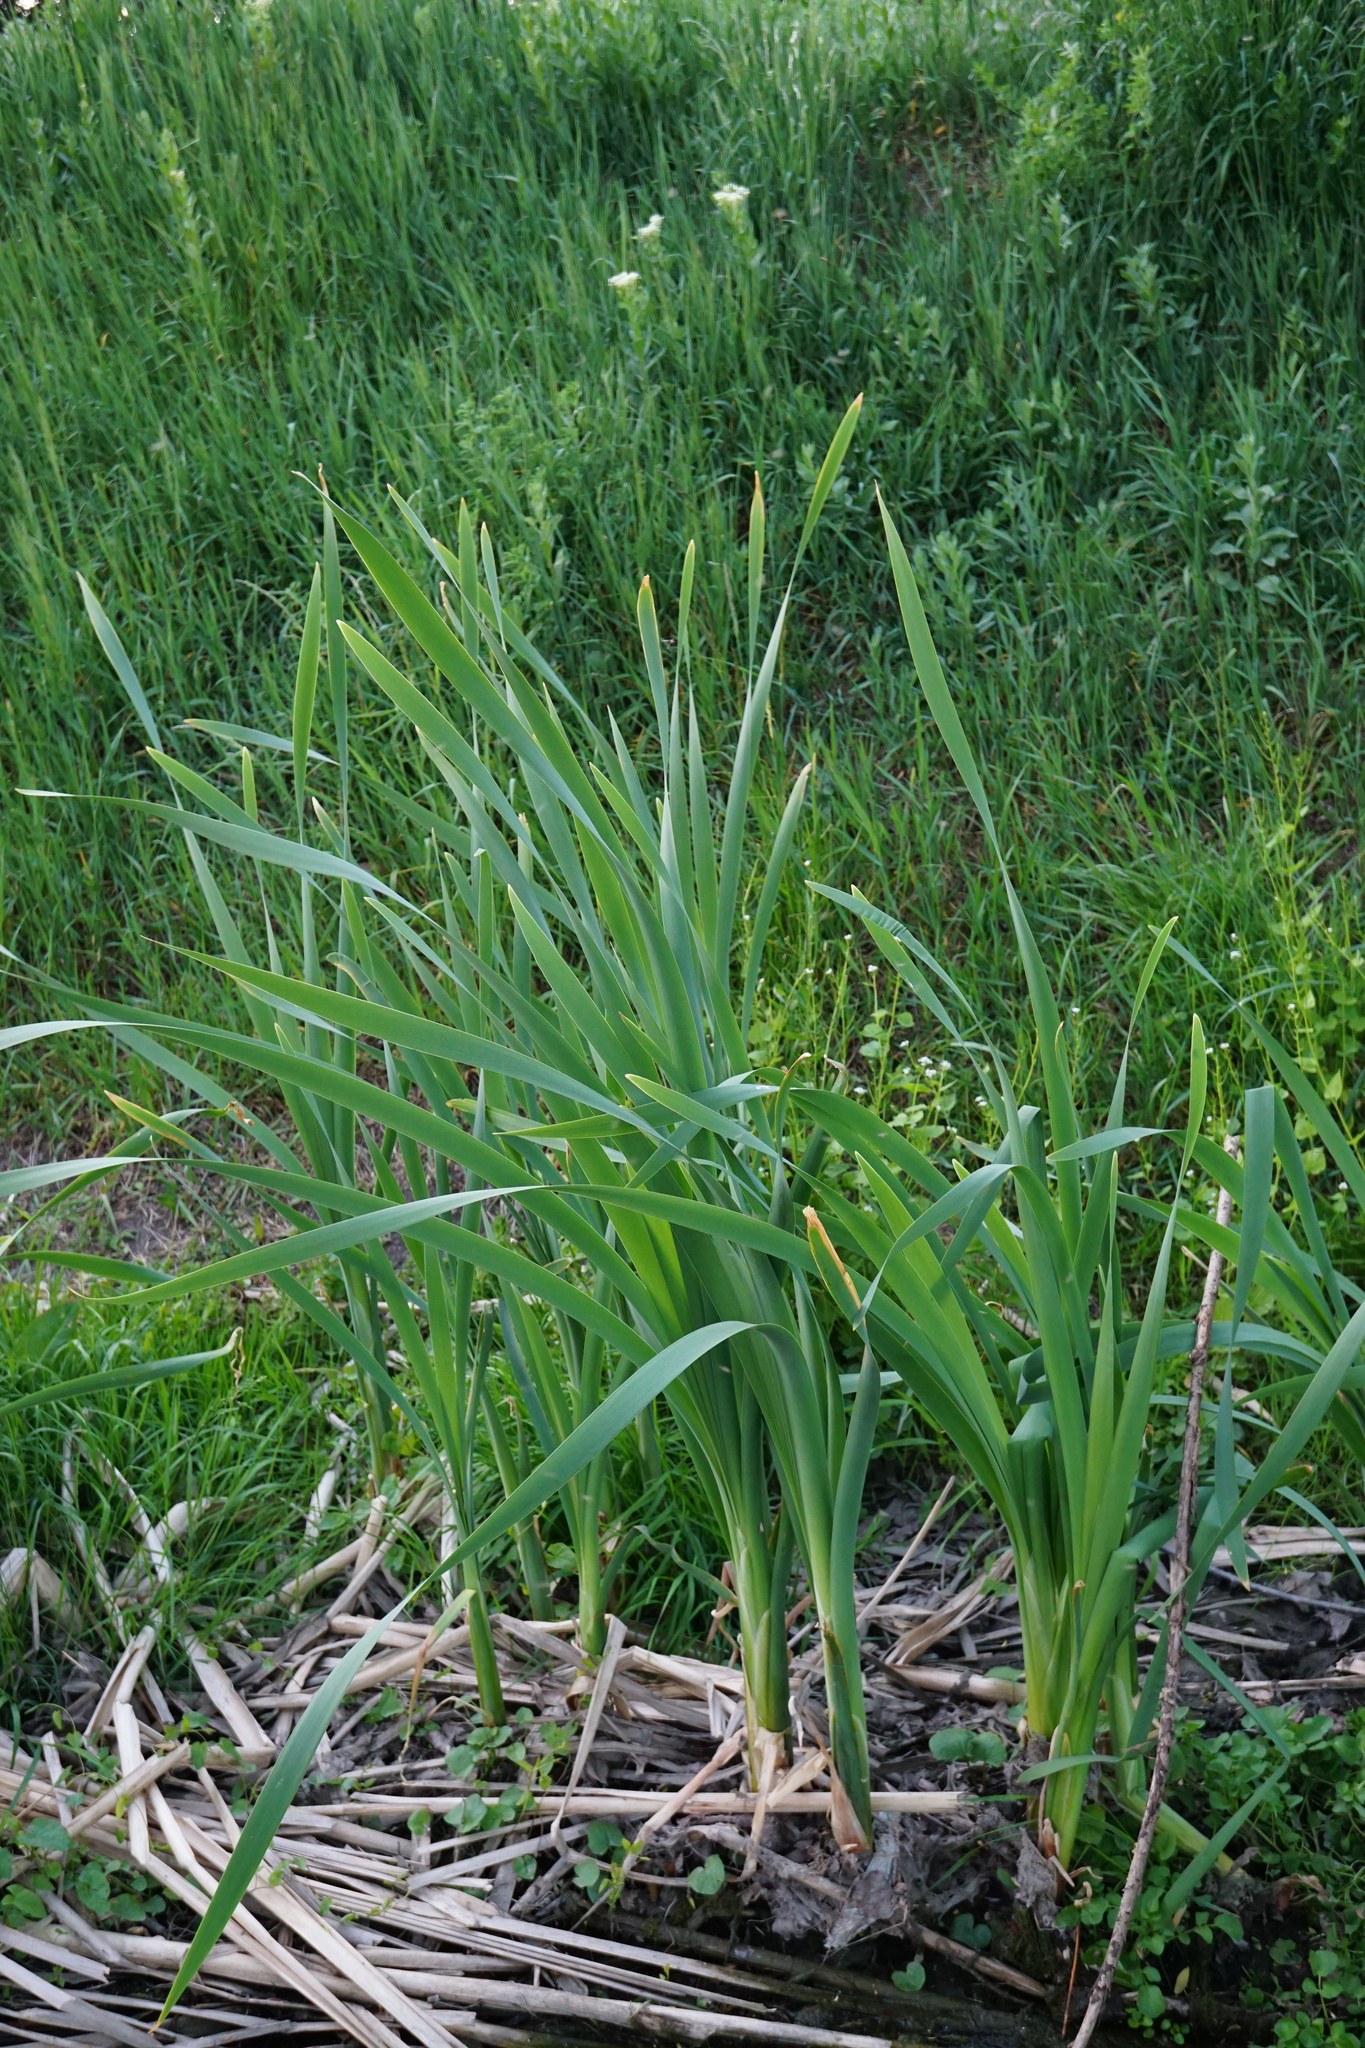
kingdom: Plantae
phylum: Tracheophyta
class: Liliopsida
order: Poales
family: Typhaceae
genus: Typha
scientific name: Typha latifolia
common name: Broadleaf cattail
